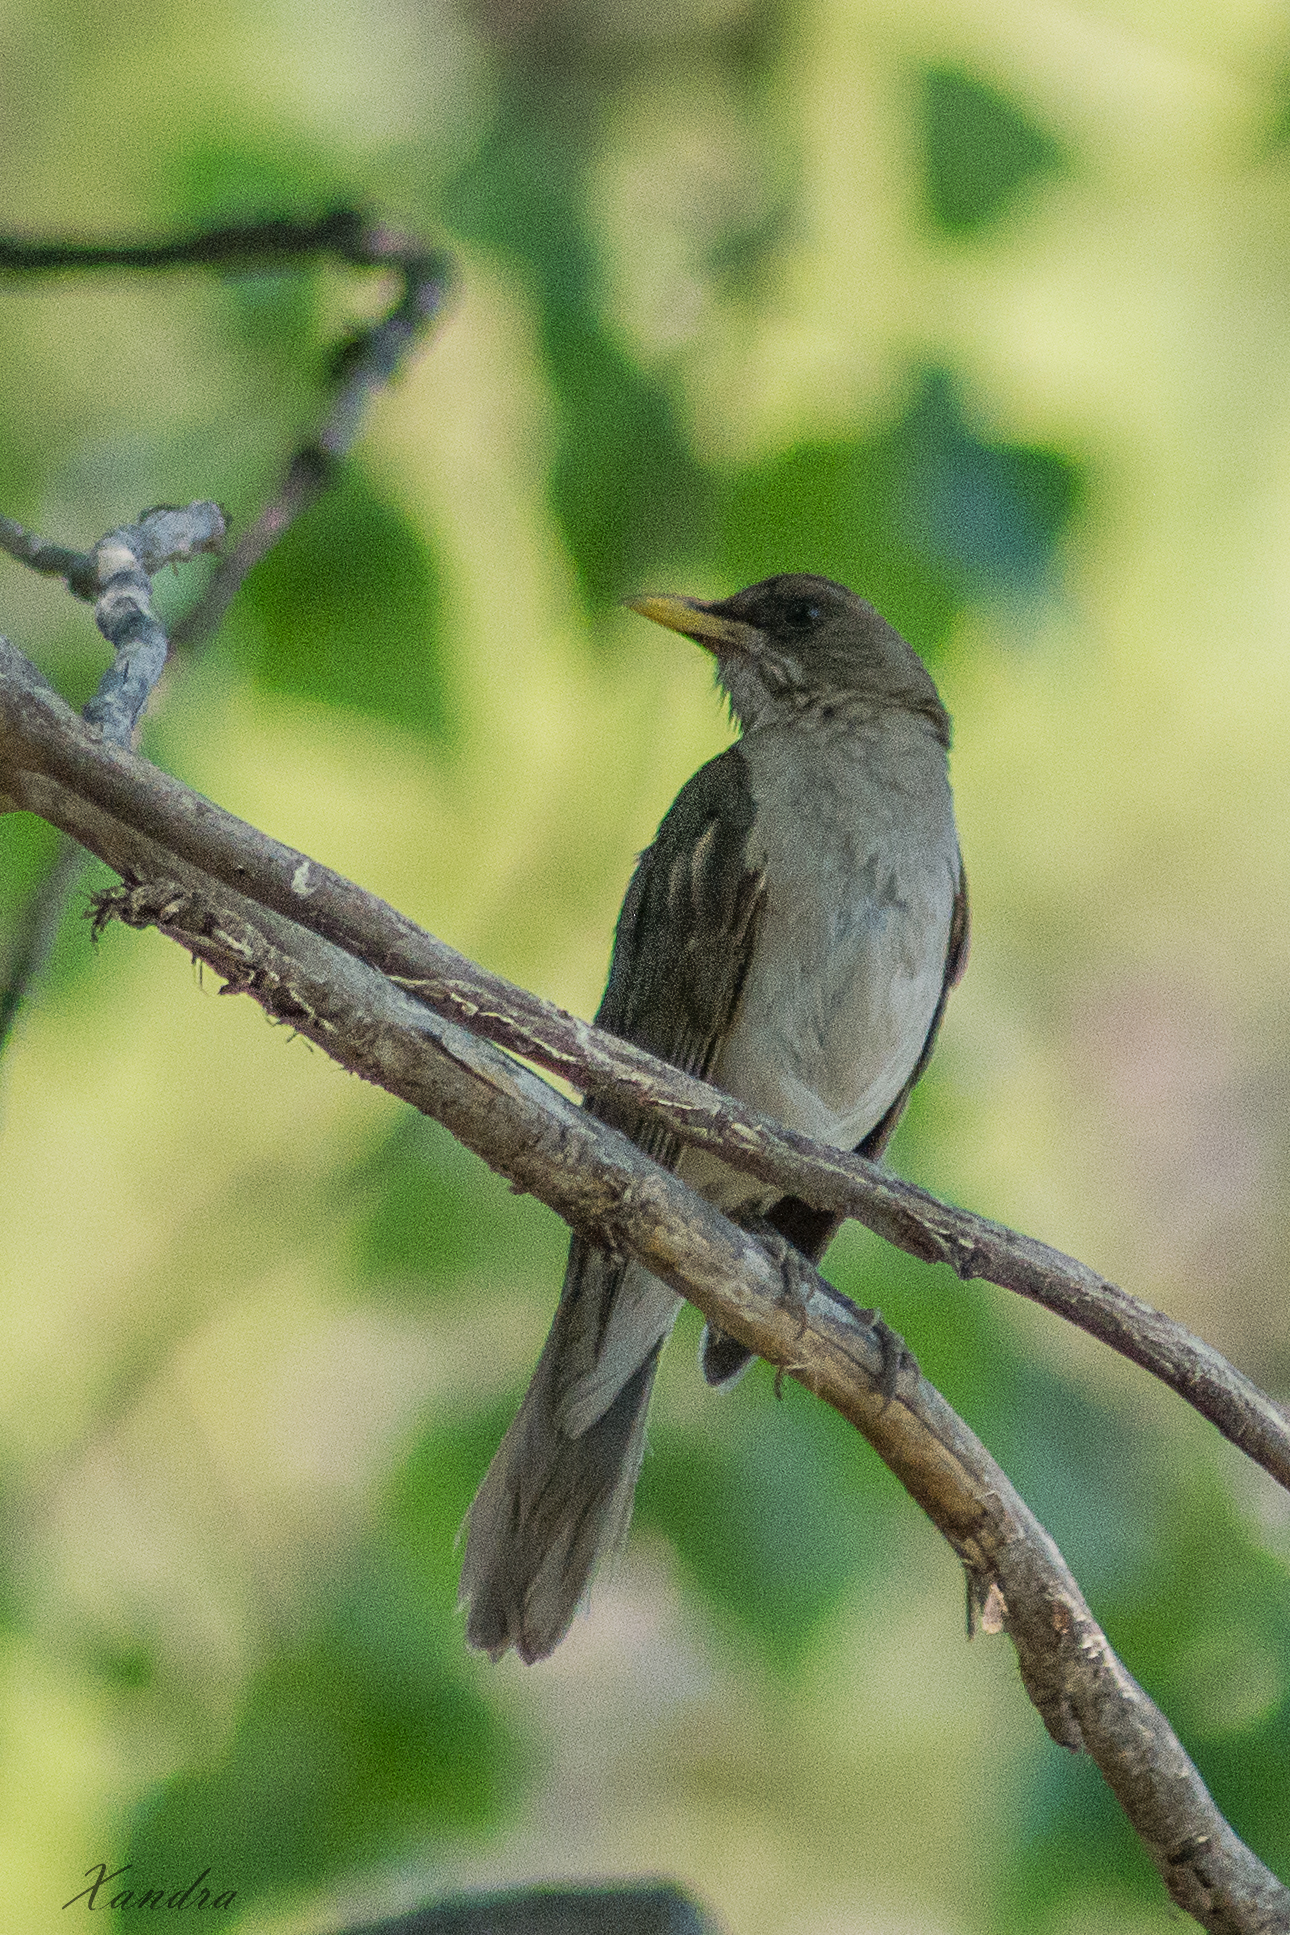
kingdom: Animalia
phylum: Chordata
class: Aves
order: Passeriformes
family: Turdidae
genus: Turdus
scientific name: Turdus amaurochalinus
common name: Creamy-bellied thrush
